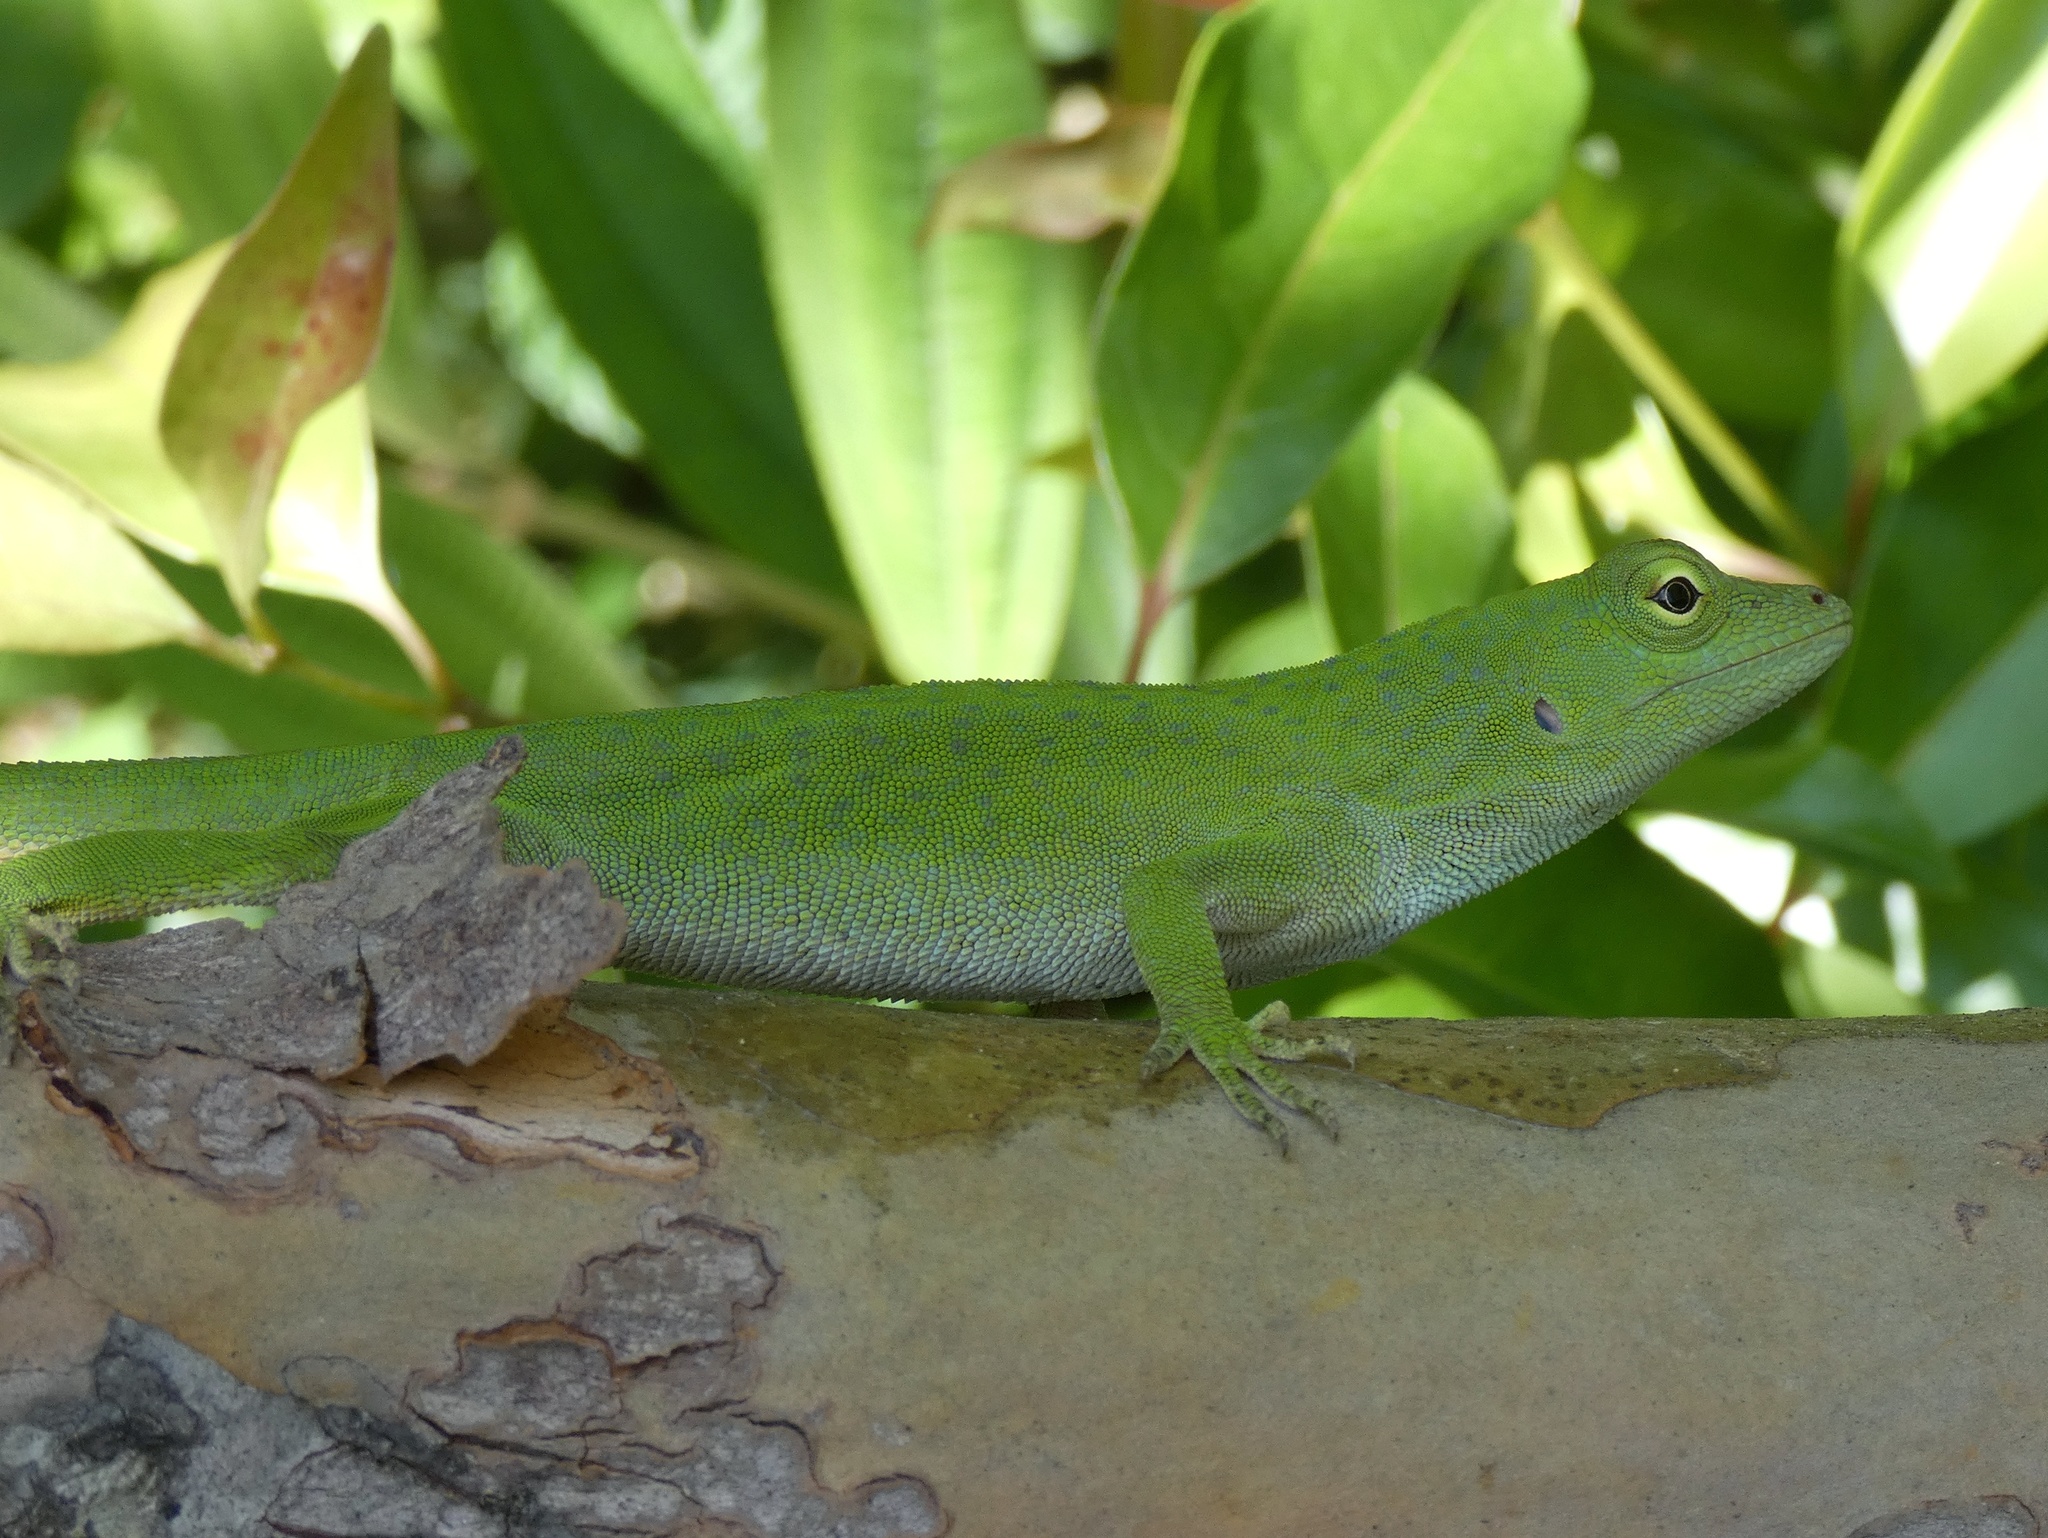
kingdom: Animalia
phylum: Chordata
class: Squamata
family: Dactyloidae
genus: Anolis
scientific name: Anolis biporcatus
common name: Giant green anole
